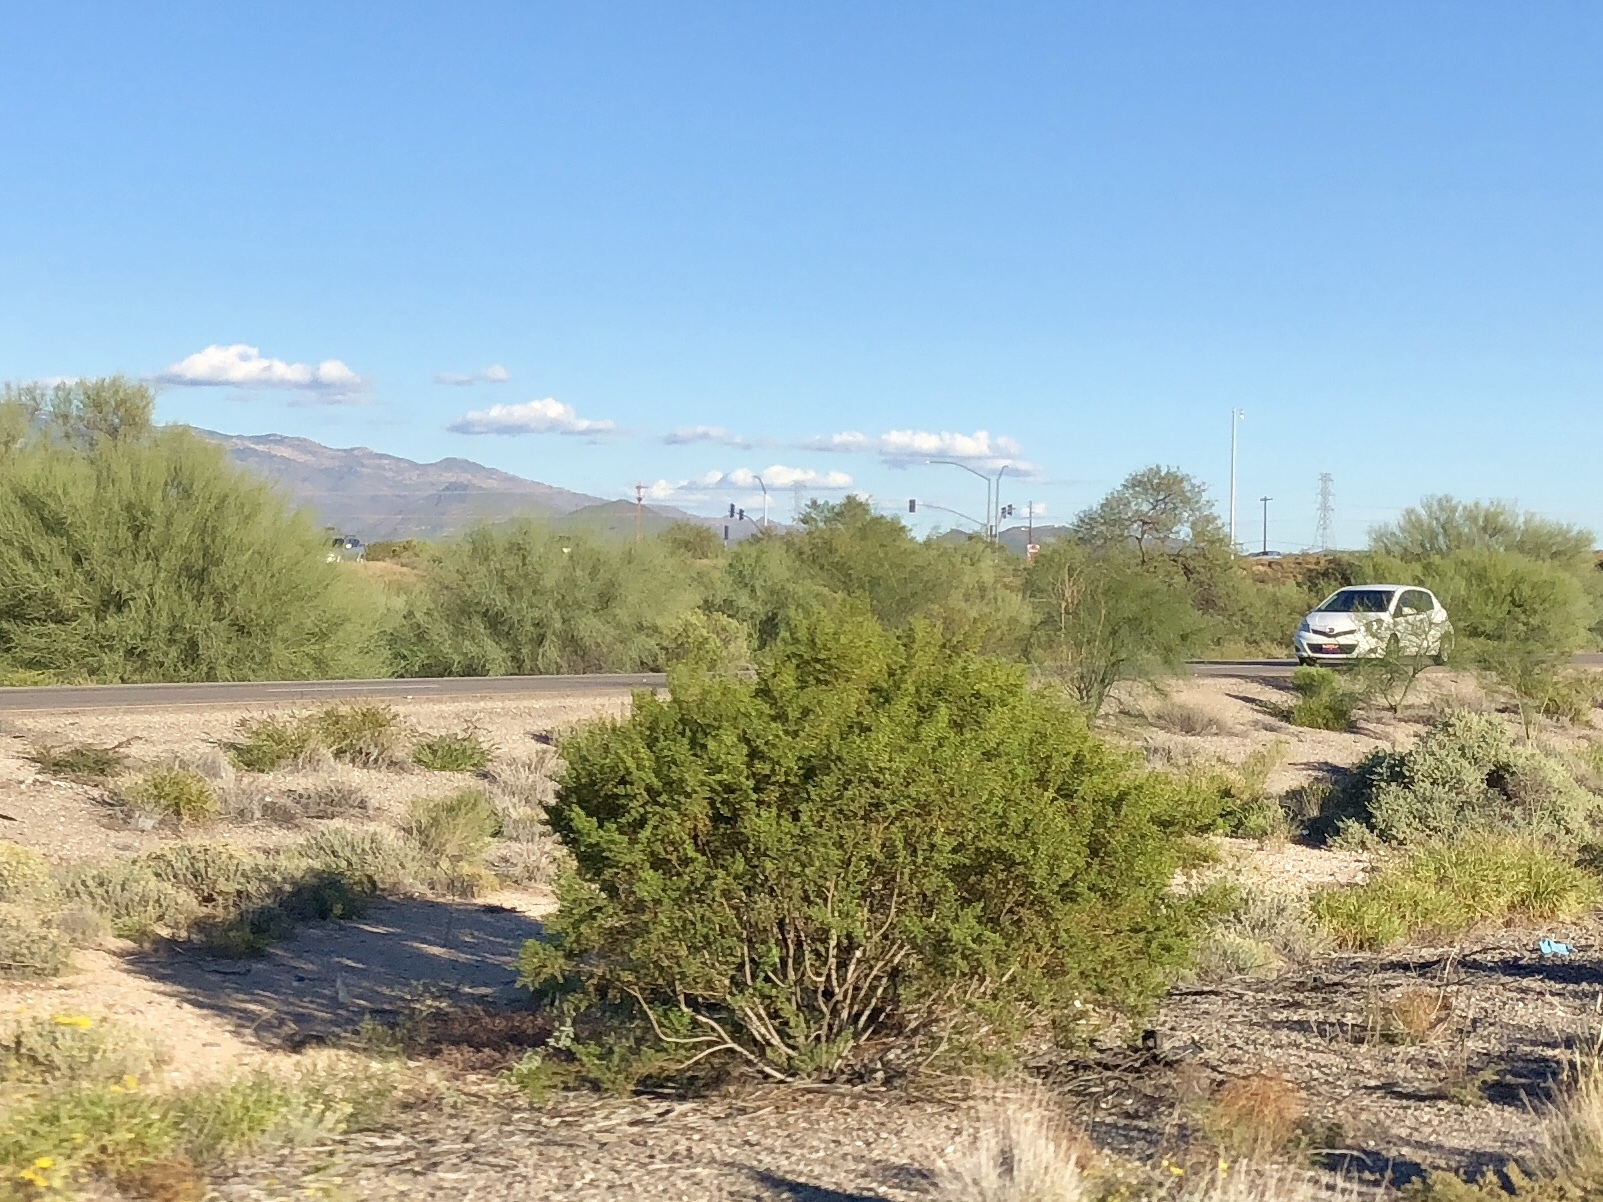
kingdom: Plantae
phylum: Tracheophyta
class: Magnoliopsida
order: Zygophyllales
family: Zygophyllaceae
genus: Larrea
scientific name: Larrea tridentata
